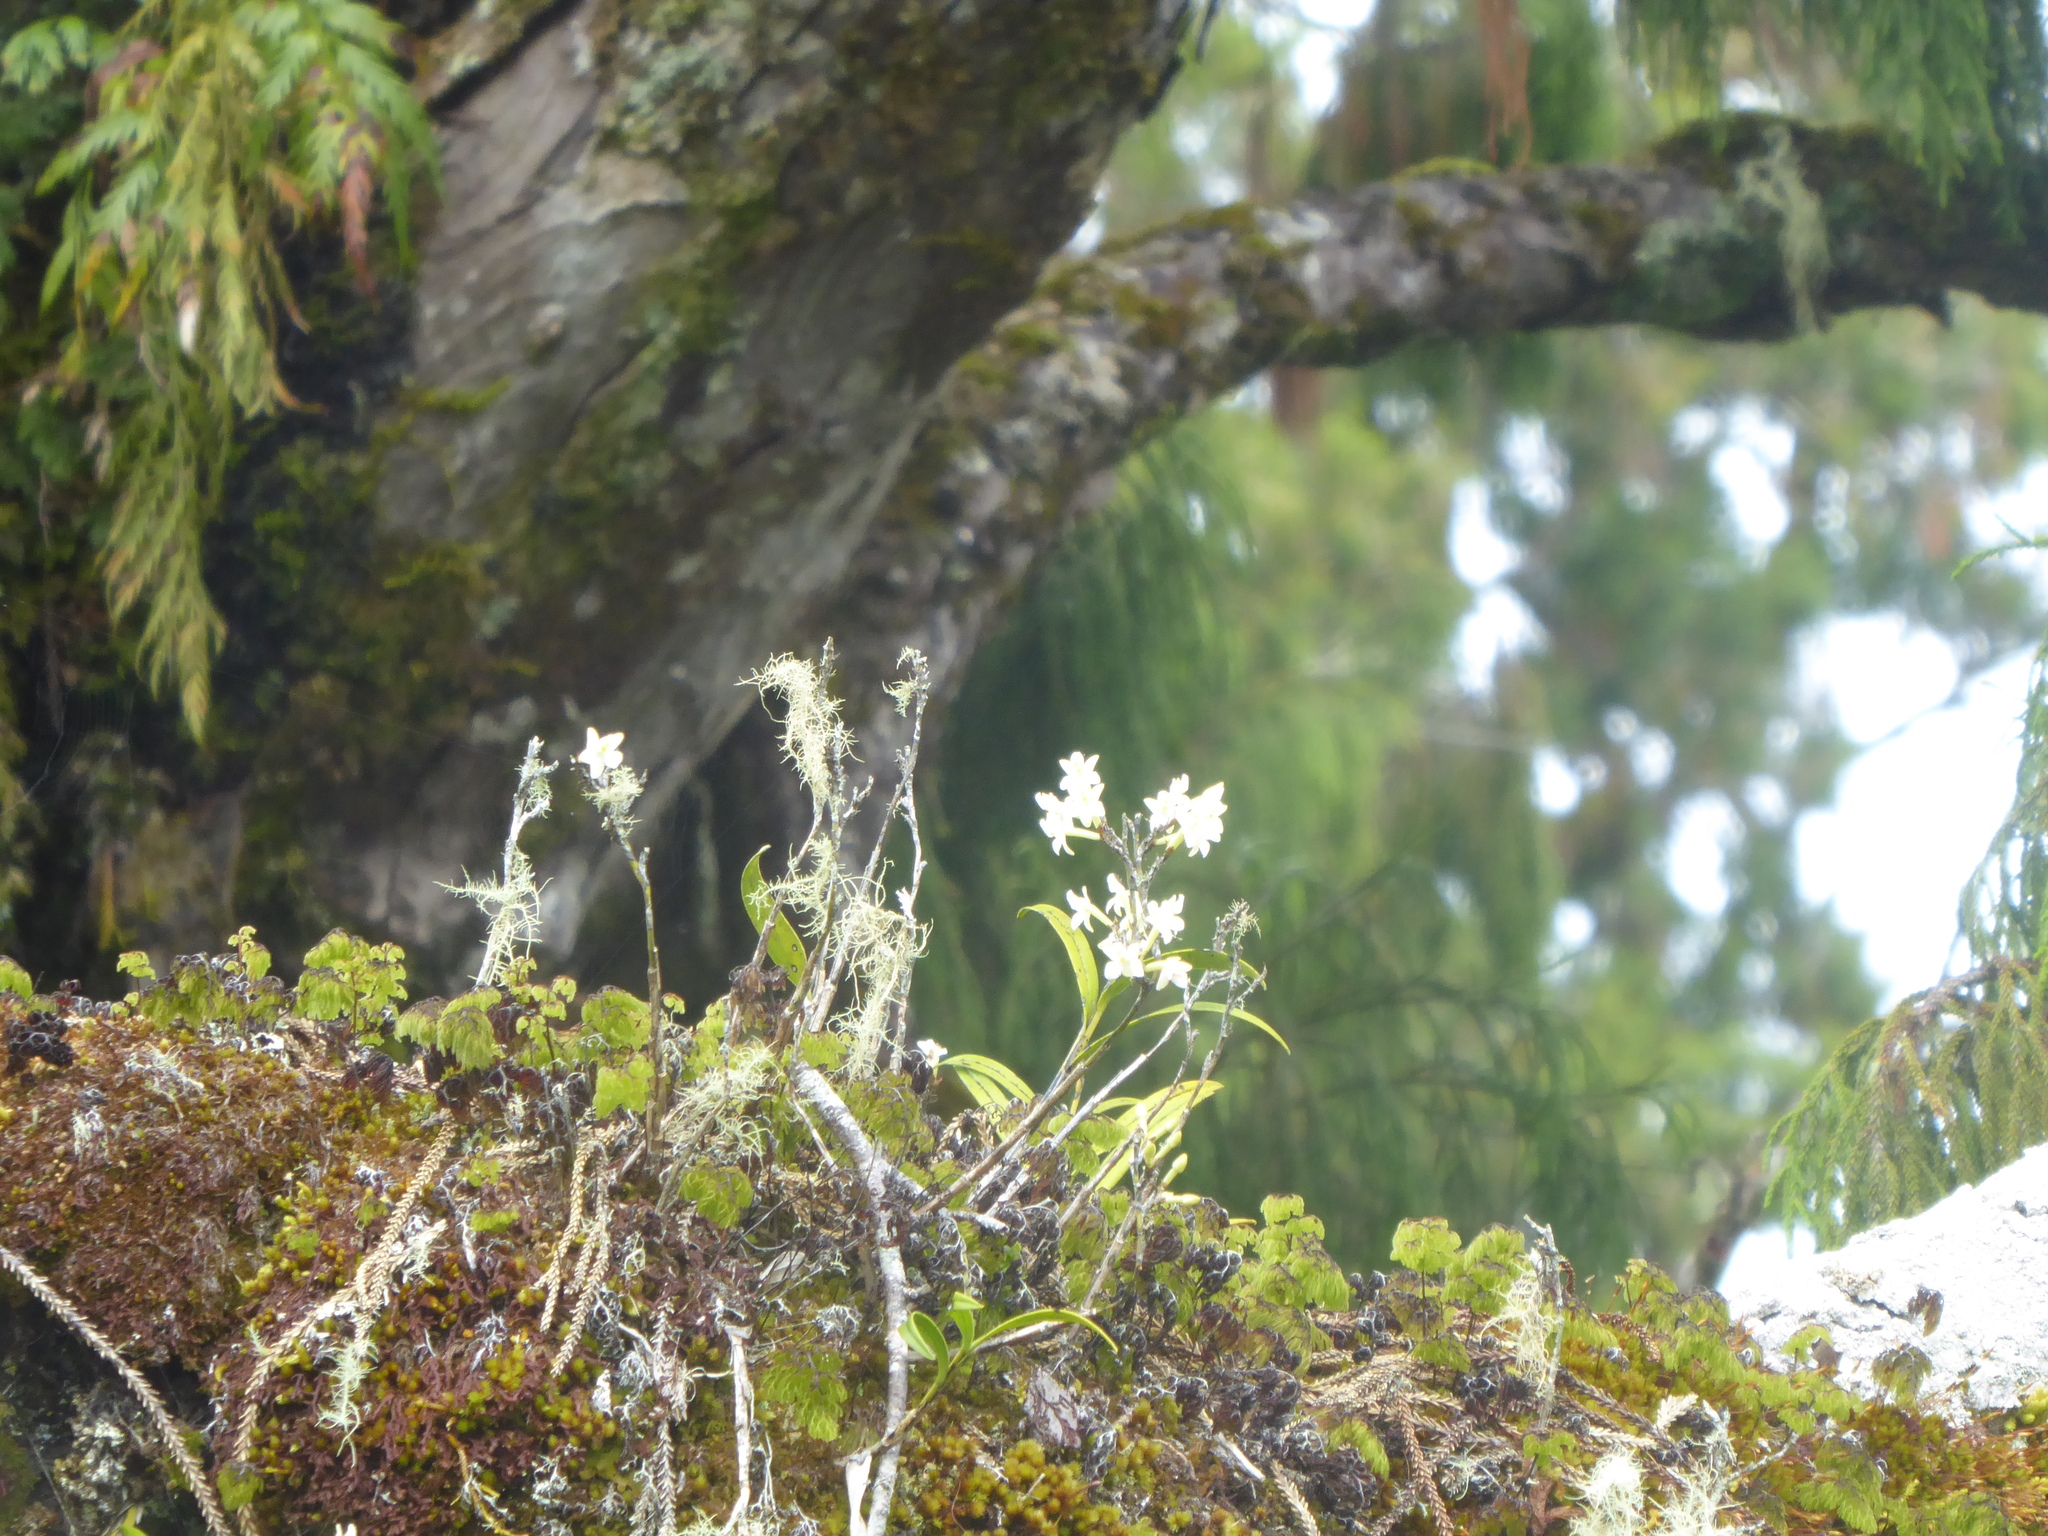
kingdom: Plantae
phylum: Tracheophyta
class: Liliopsida
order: Asparagales
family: Orchidaceae
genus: Earina
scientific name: Earina autumnalis
